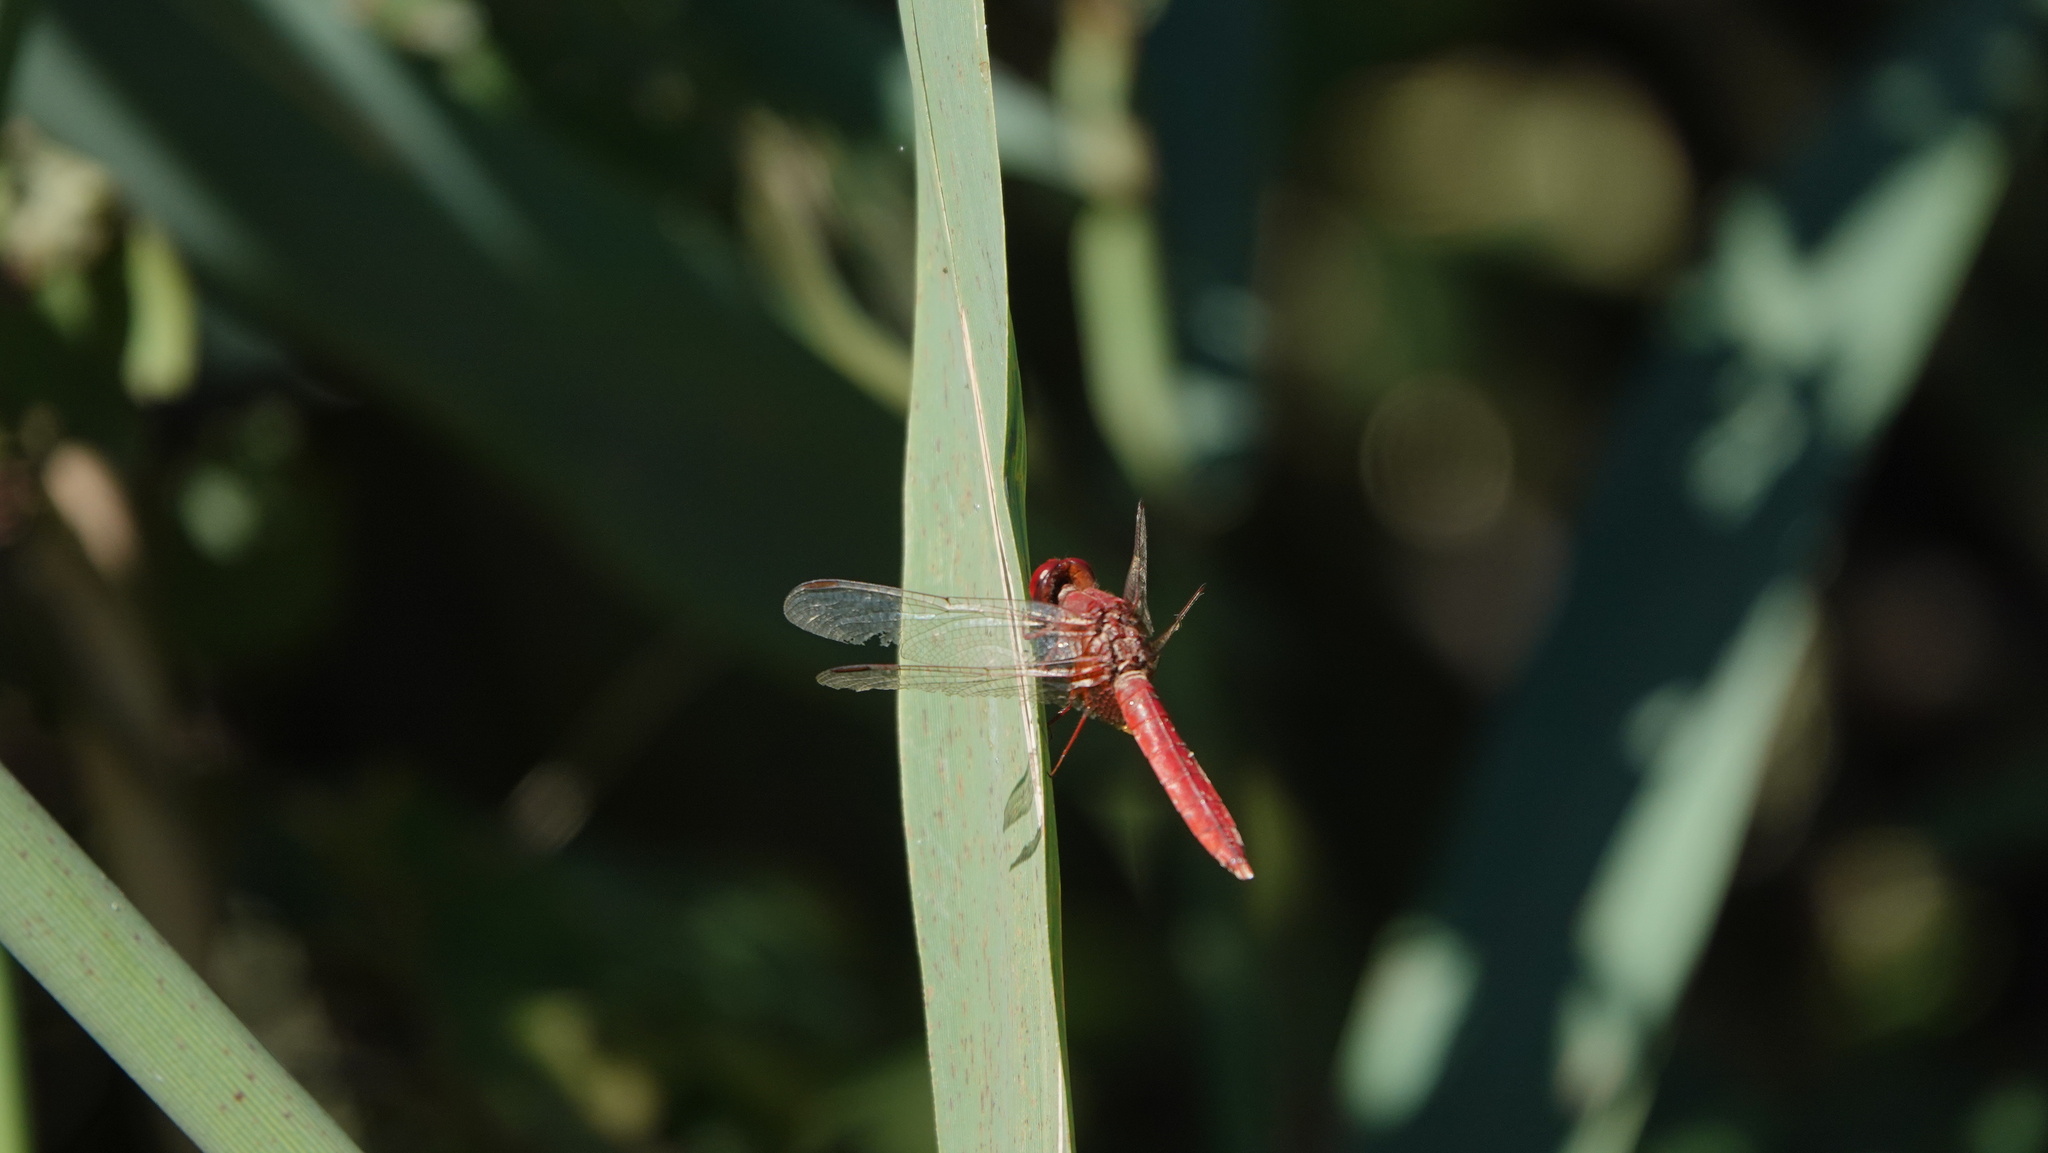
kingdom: Animalia
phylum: Arthropoda
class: Insecta
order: Odonata
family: Libellulidae
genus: Crocothemis
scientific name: Crocothemis erythraea
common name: Scarlet dragonfly
